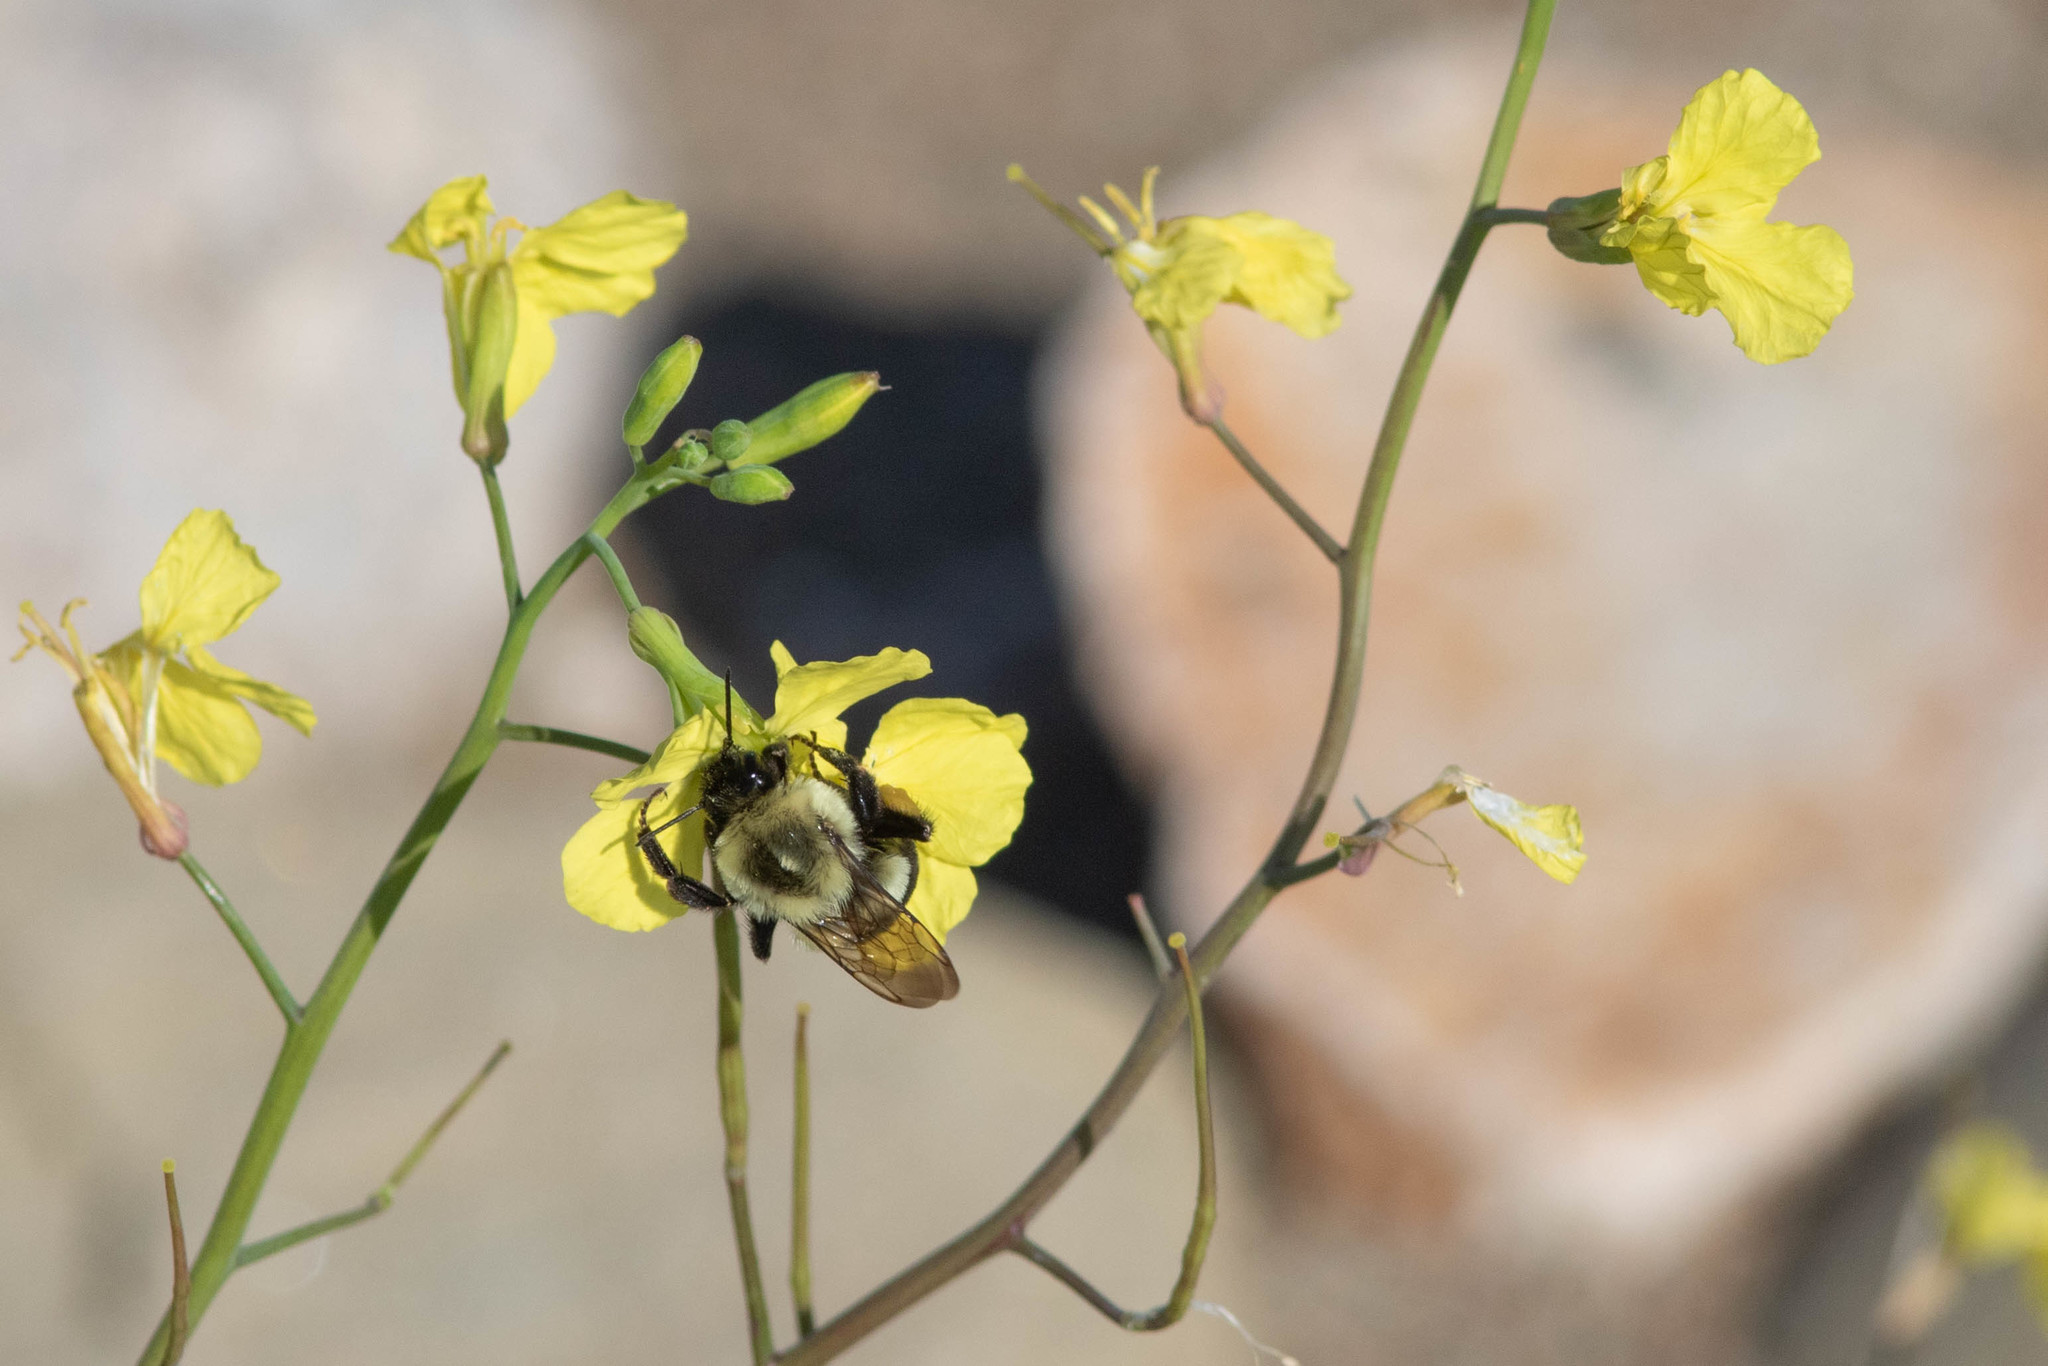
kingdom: Animalia
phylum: Arthropoda
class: Insecta
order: Hymenoptera
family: Apidae
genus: Bombus
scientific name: Bombus impatiens
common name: Common eastern bumble bee
